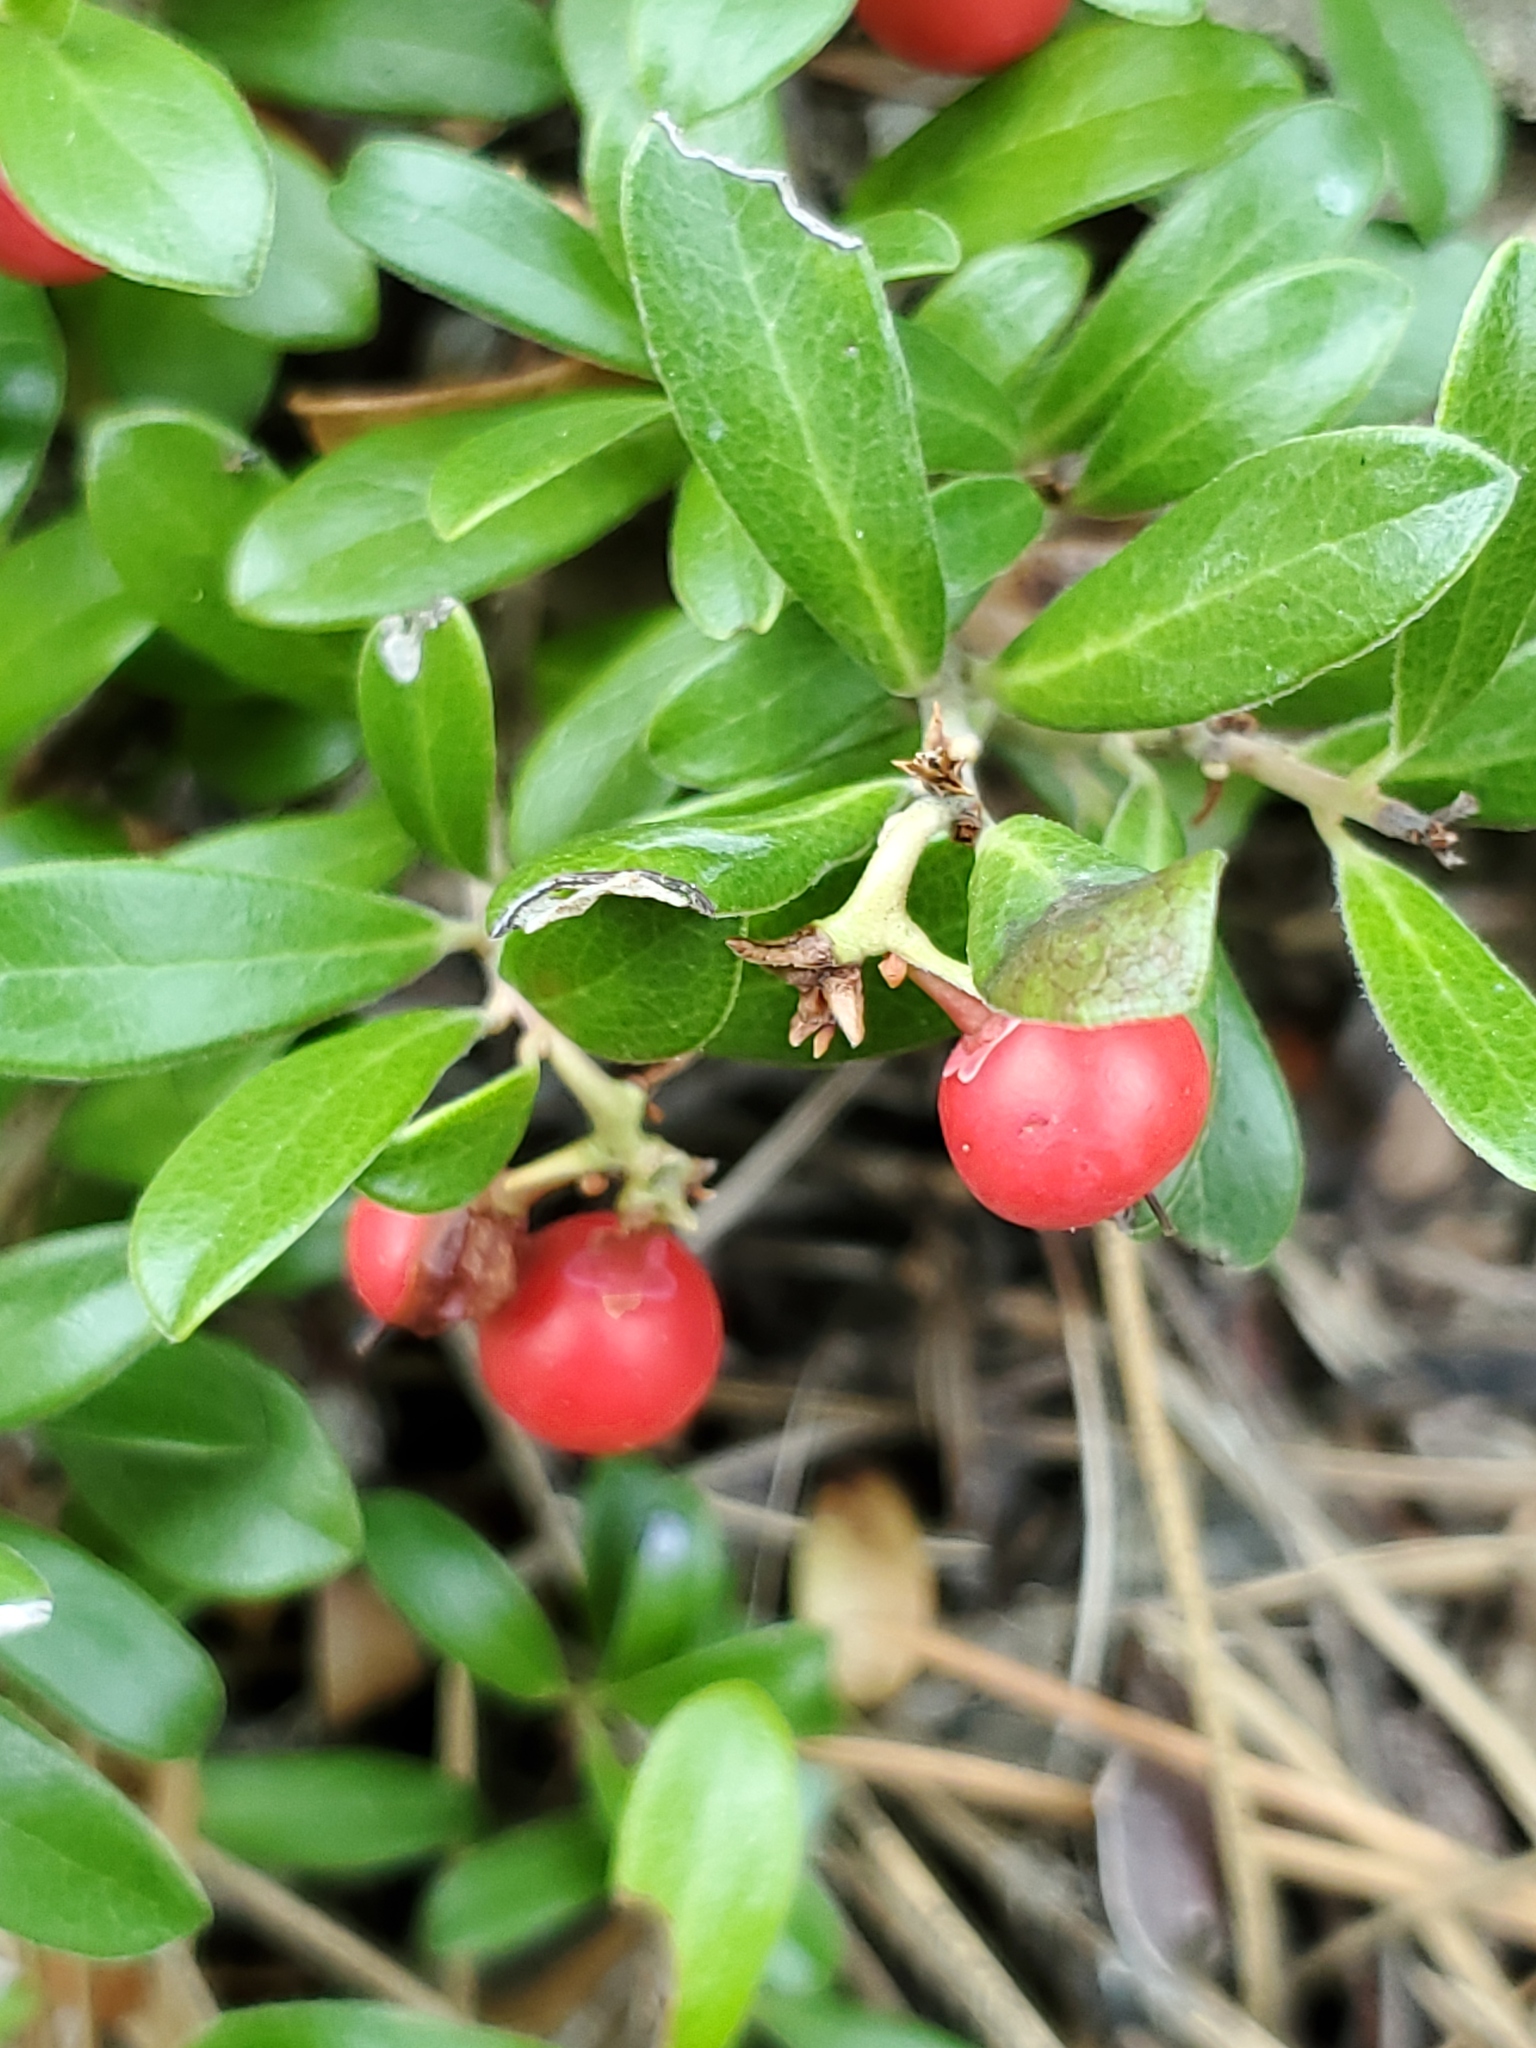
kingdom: Plantae
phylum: Tracheophyta
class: Magnoliopsida
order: Ericales
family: Ericaceae
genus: Arctostaphylos
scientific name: Arctostaphylos uva-ursi
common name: Bearberry
